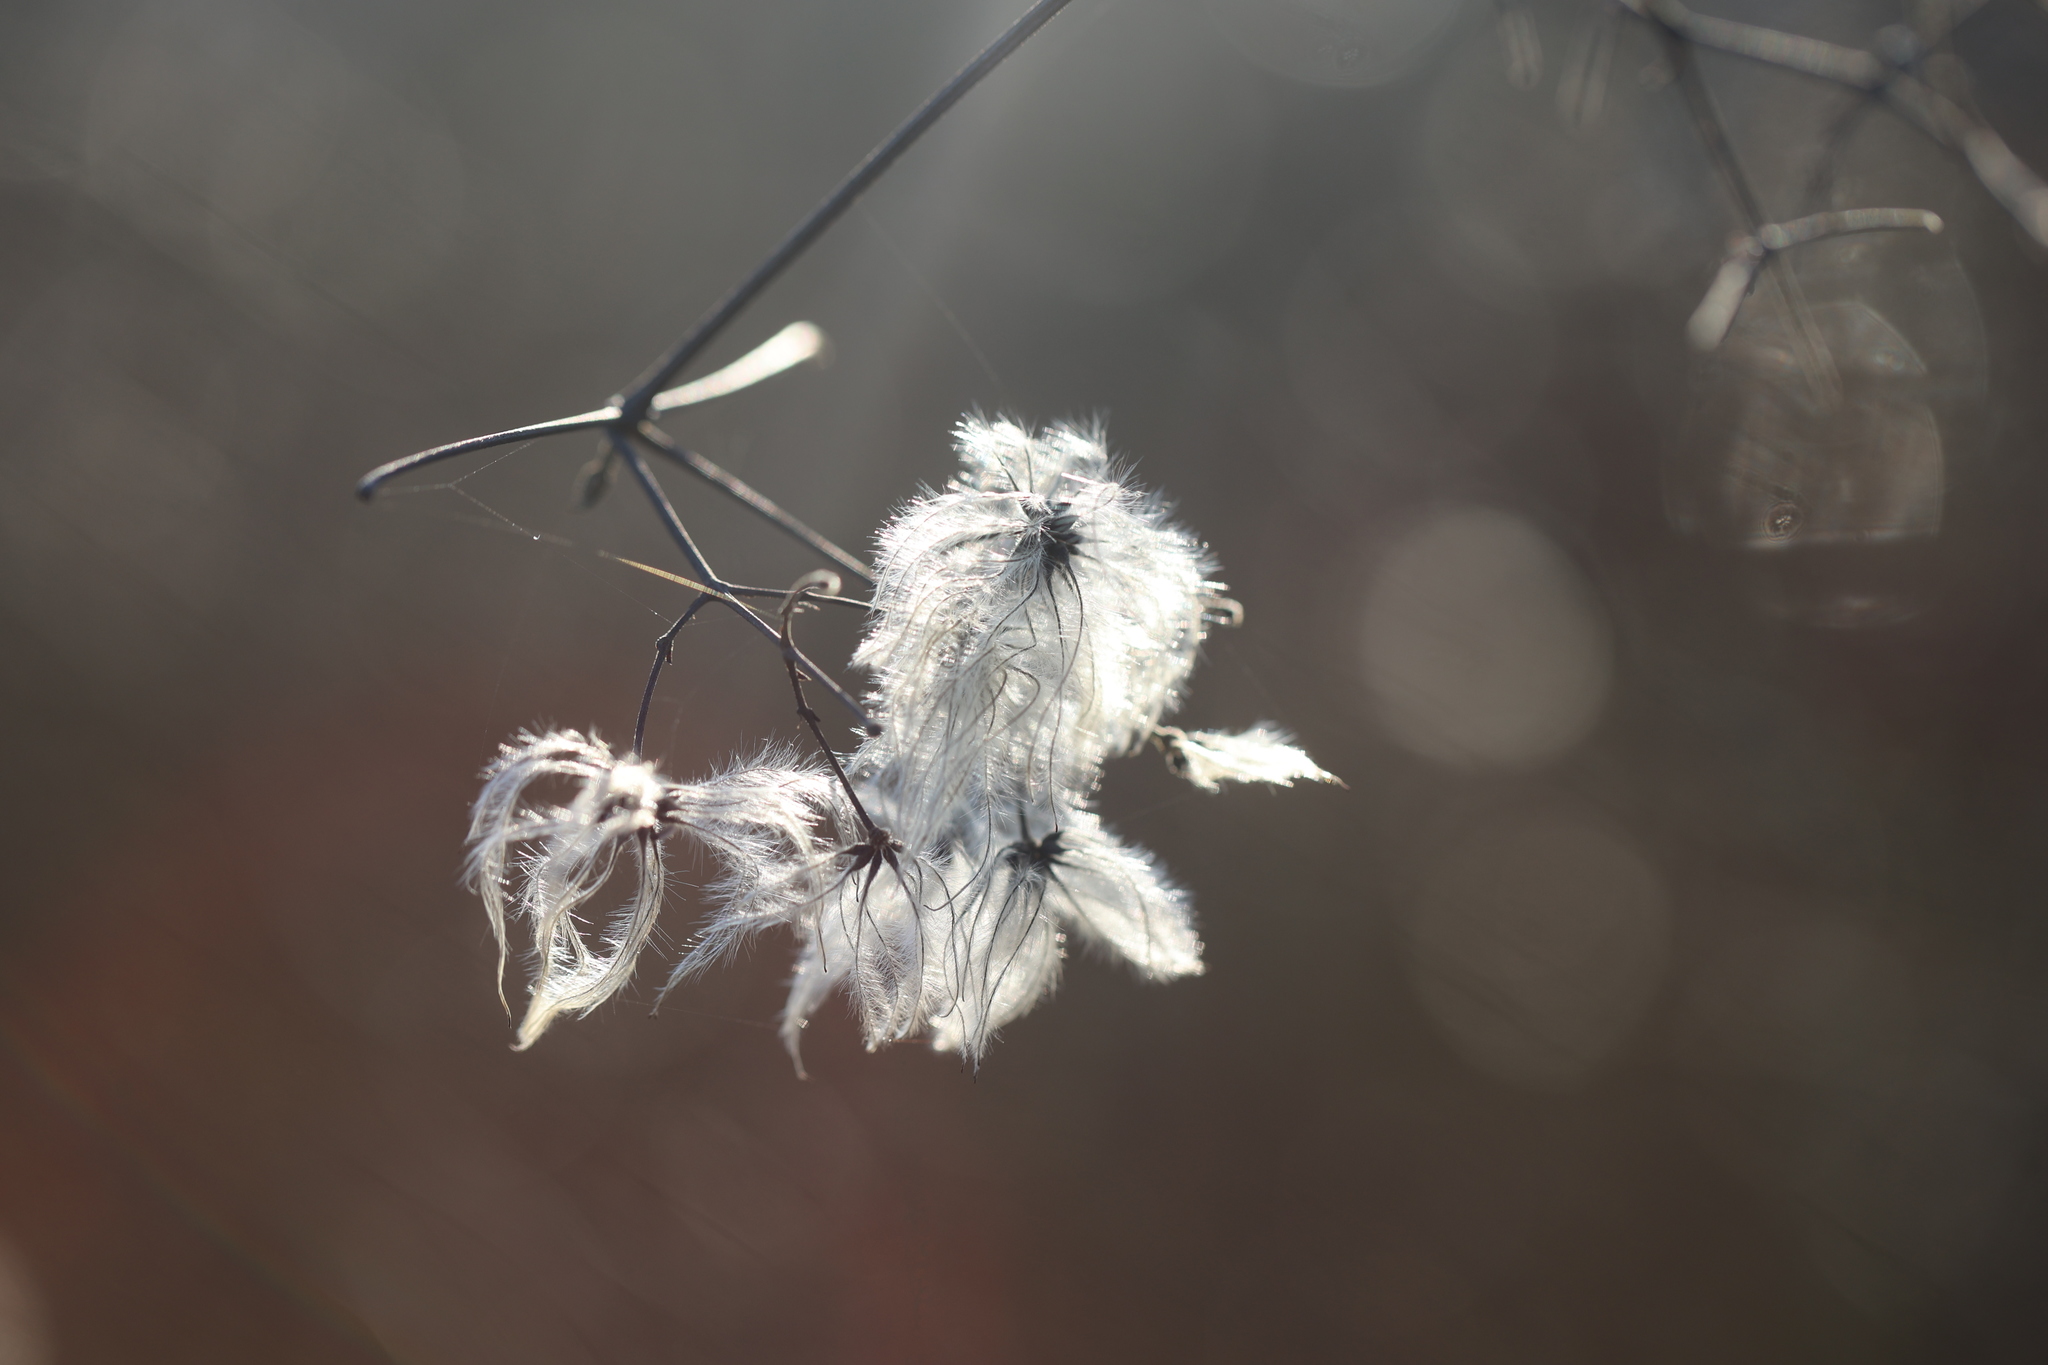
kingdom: Plantae
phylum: Tracheophyta
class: Magnoliopsida
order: Ranunculales
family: Ranunculaceae
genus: Clematis
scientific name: Clematis vitalba
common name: Evergreen clematis
